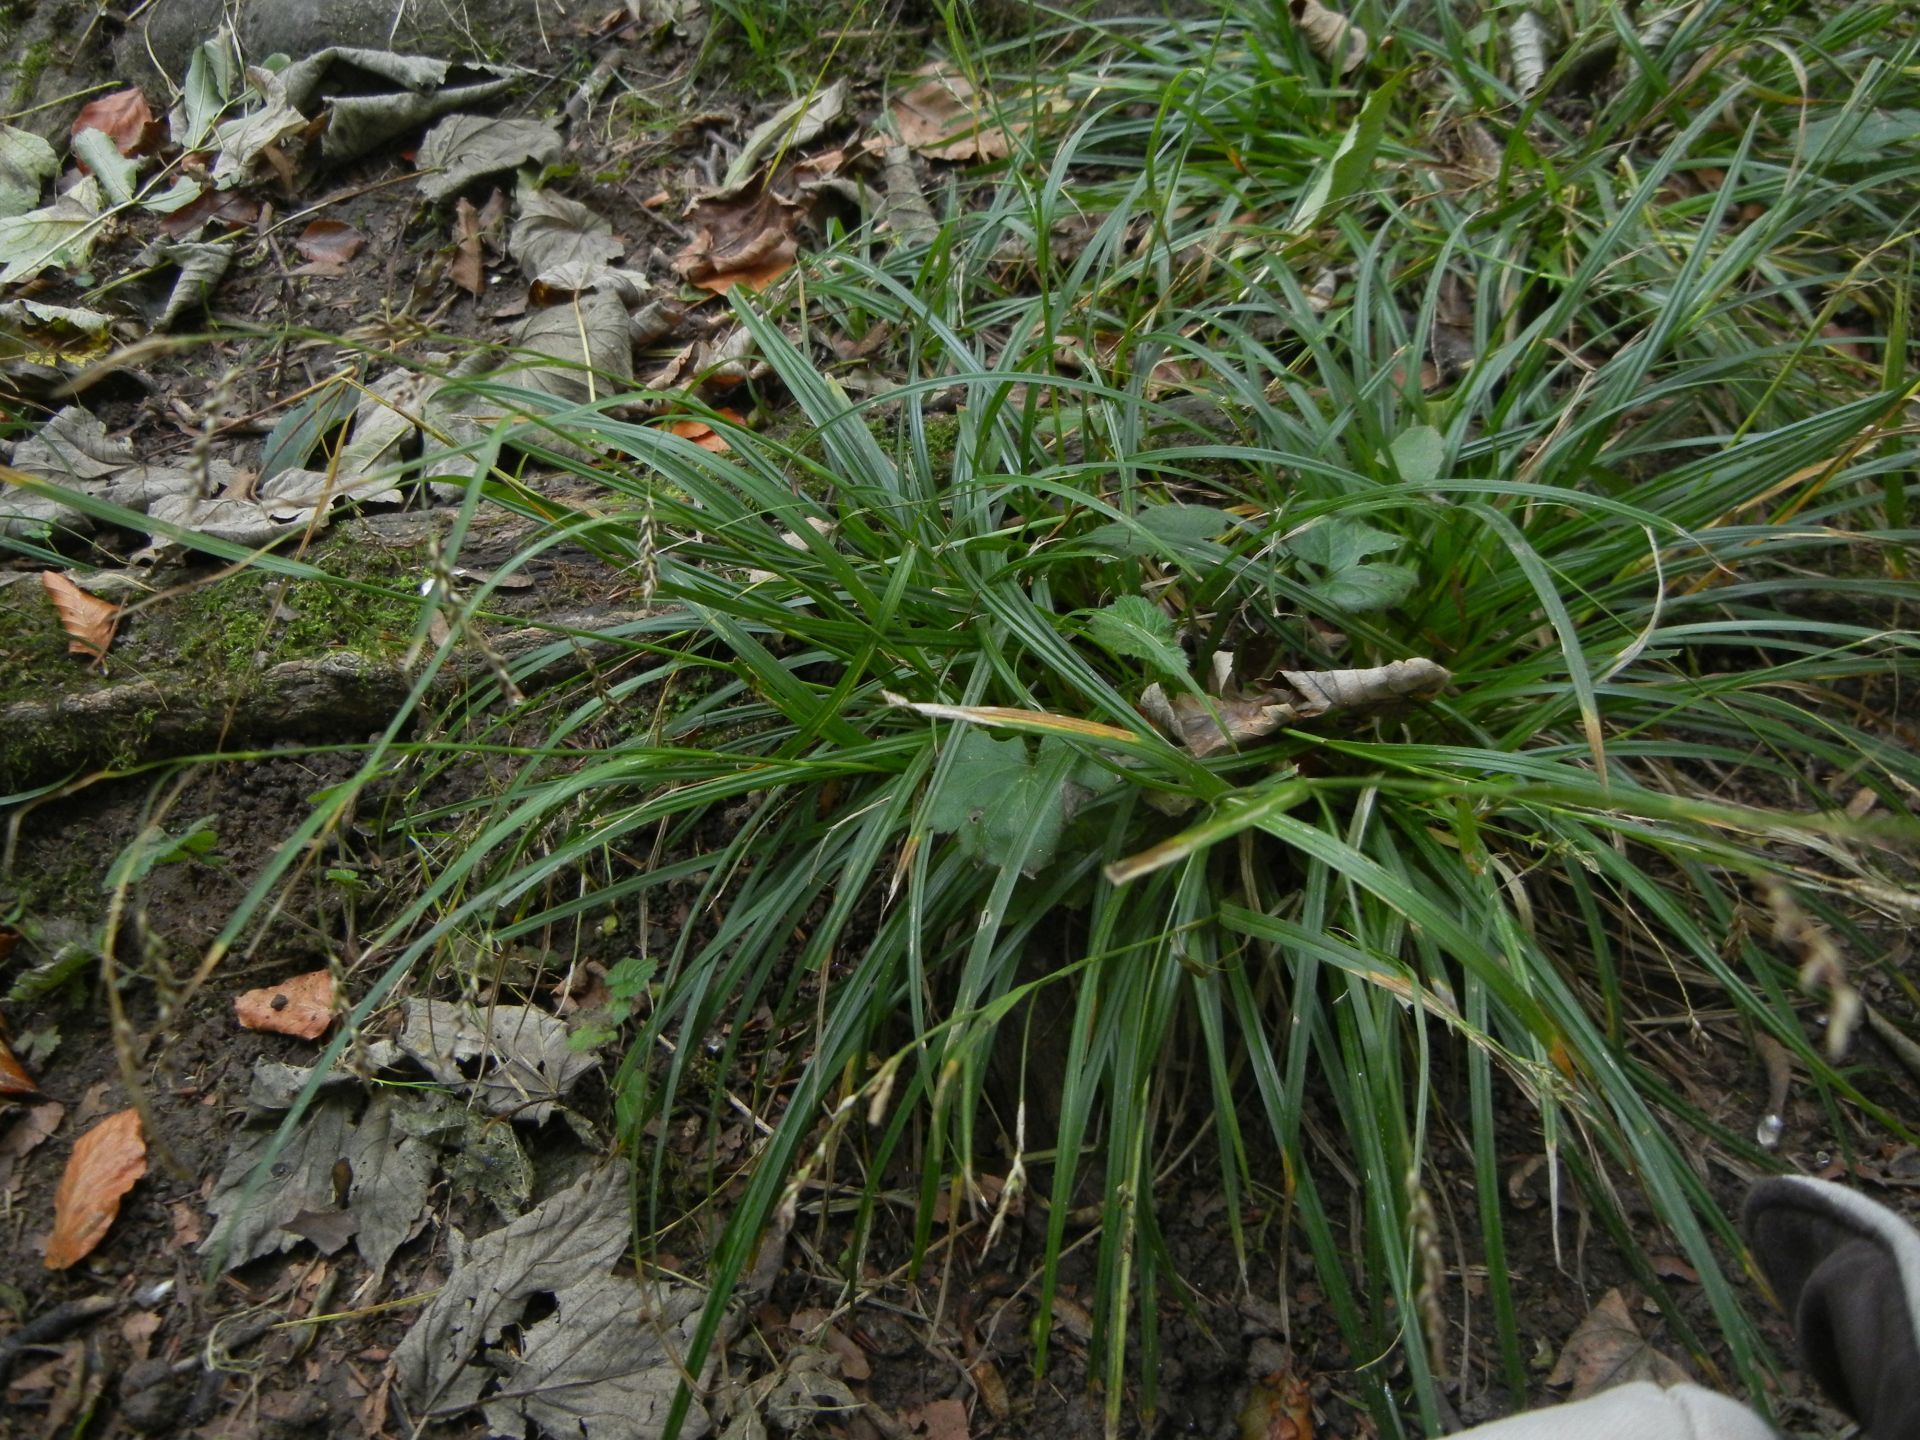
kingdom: Plantae
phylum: Tracheophyta
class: Liliopsida
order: Poales
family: Cyperaceae
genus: Carex
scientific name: Carex sylvatica
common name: Wood-sedge
